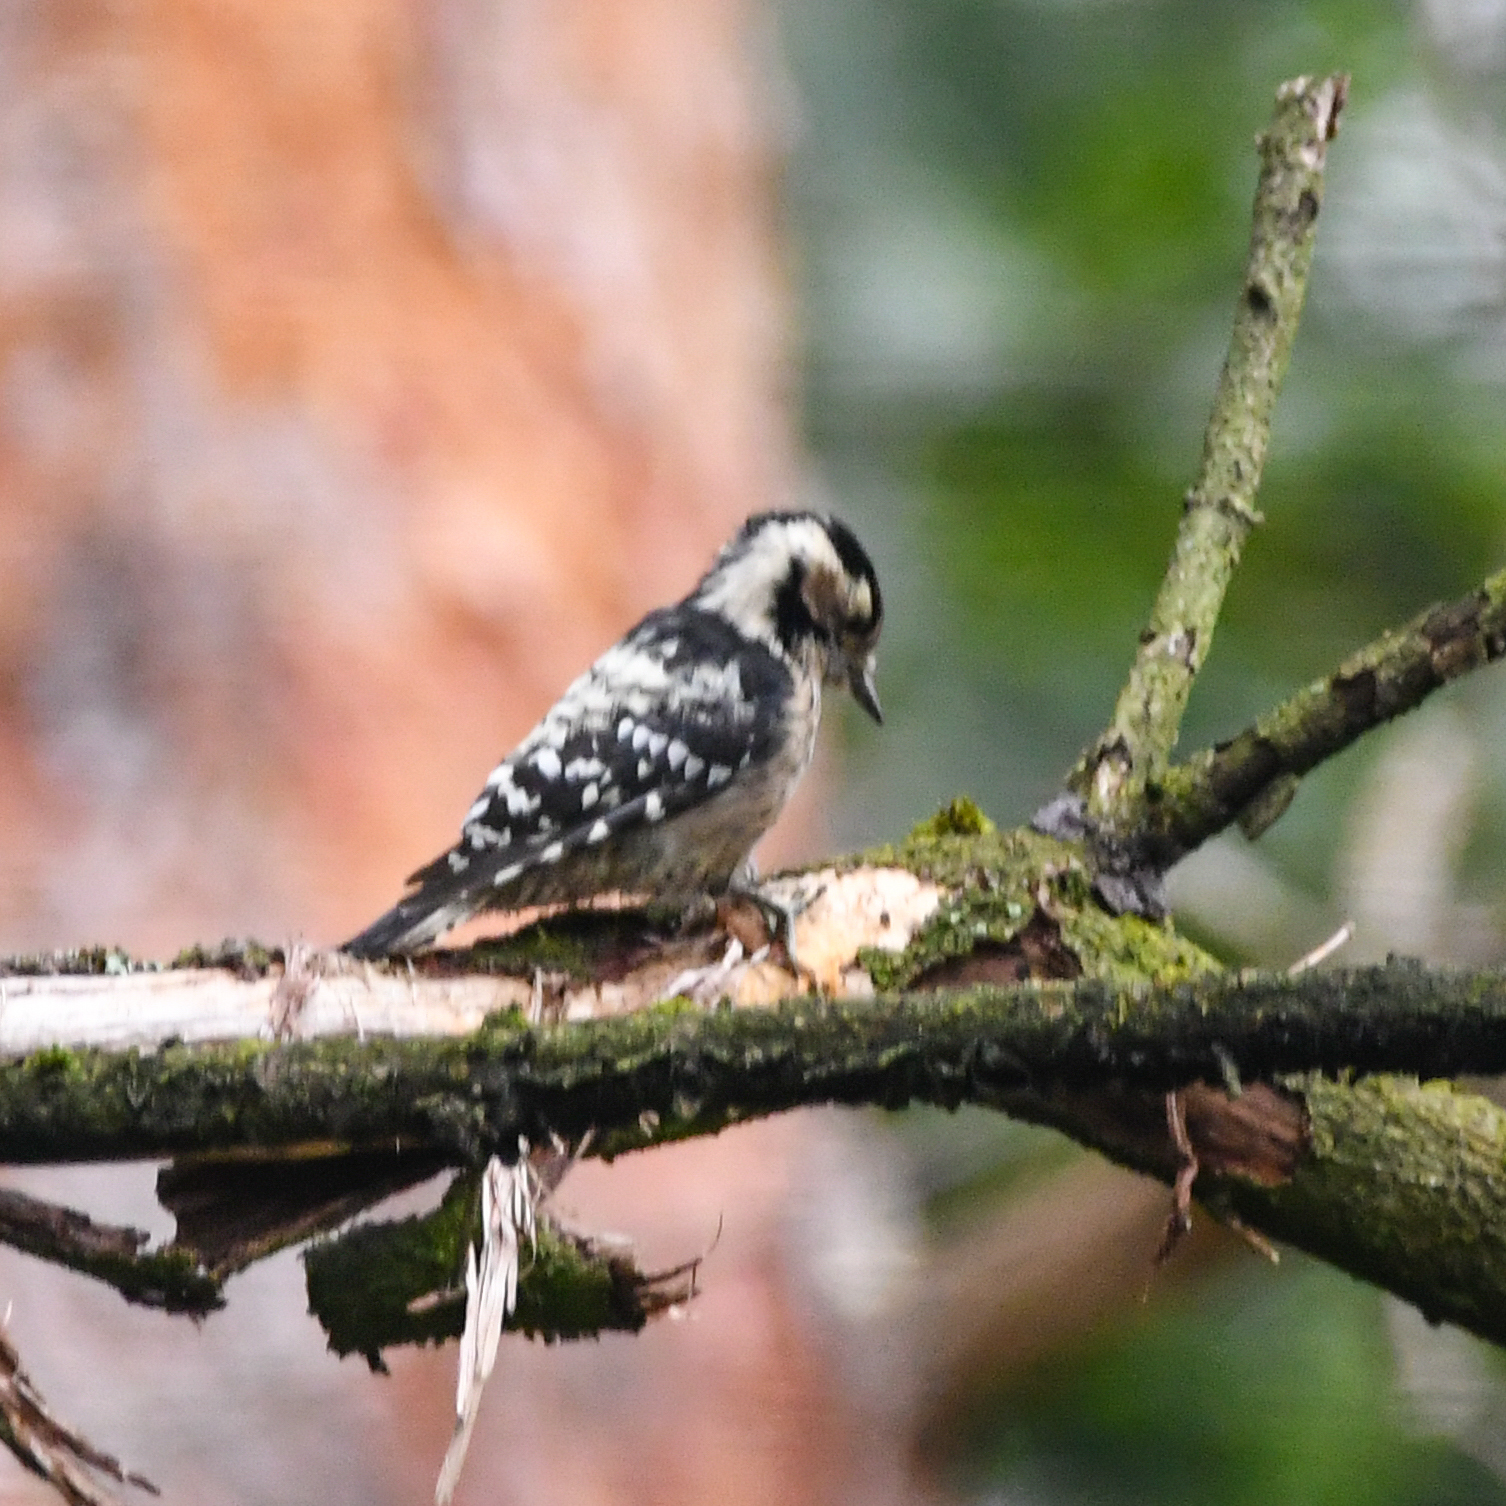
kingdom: Animalia
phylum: Chordata
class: Aves
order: Piciformes
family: Picidae
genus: Dryobates
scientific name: Dryobates minor
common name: Lesser spotted woodpecker
